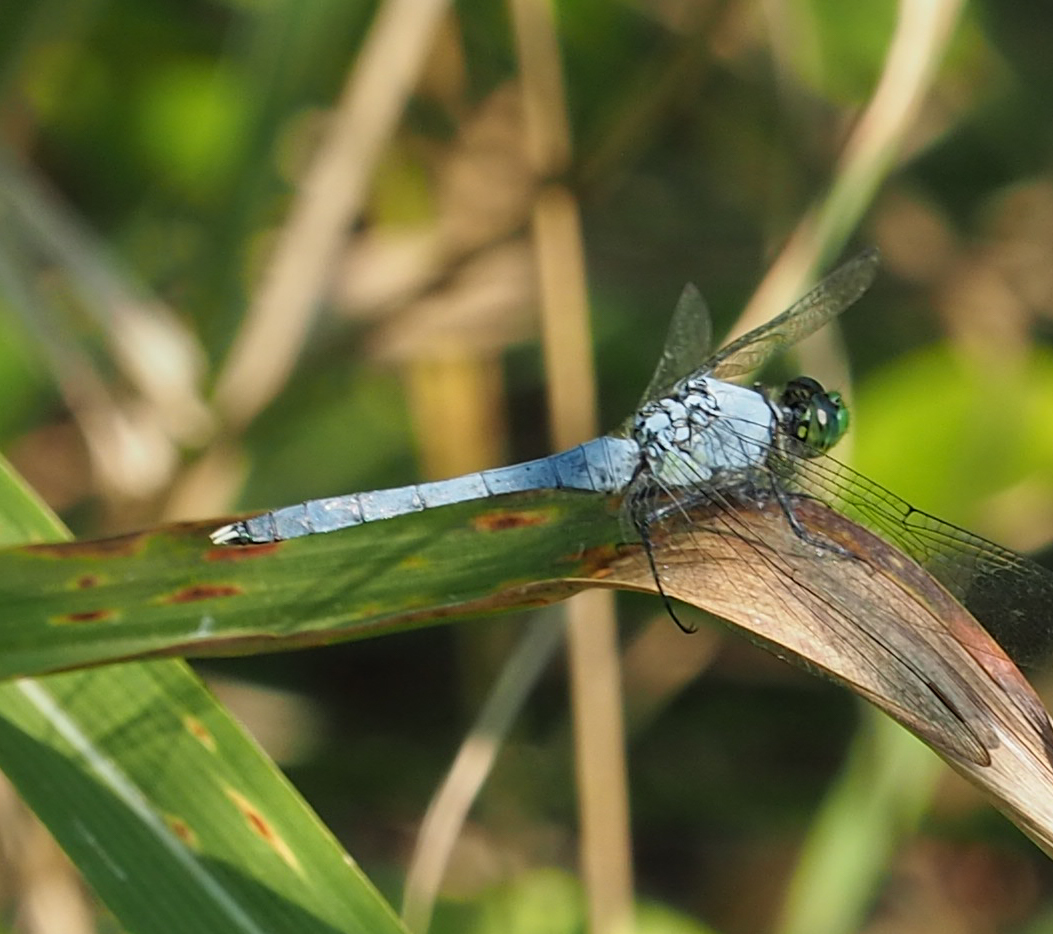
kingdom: Animalia
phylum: Arthropoda
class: Insecta
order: Odonata
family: Libellulidae
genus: Erythemis
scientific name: Erythemis simplicicollis
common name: Eastern pondhawk
